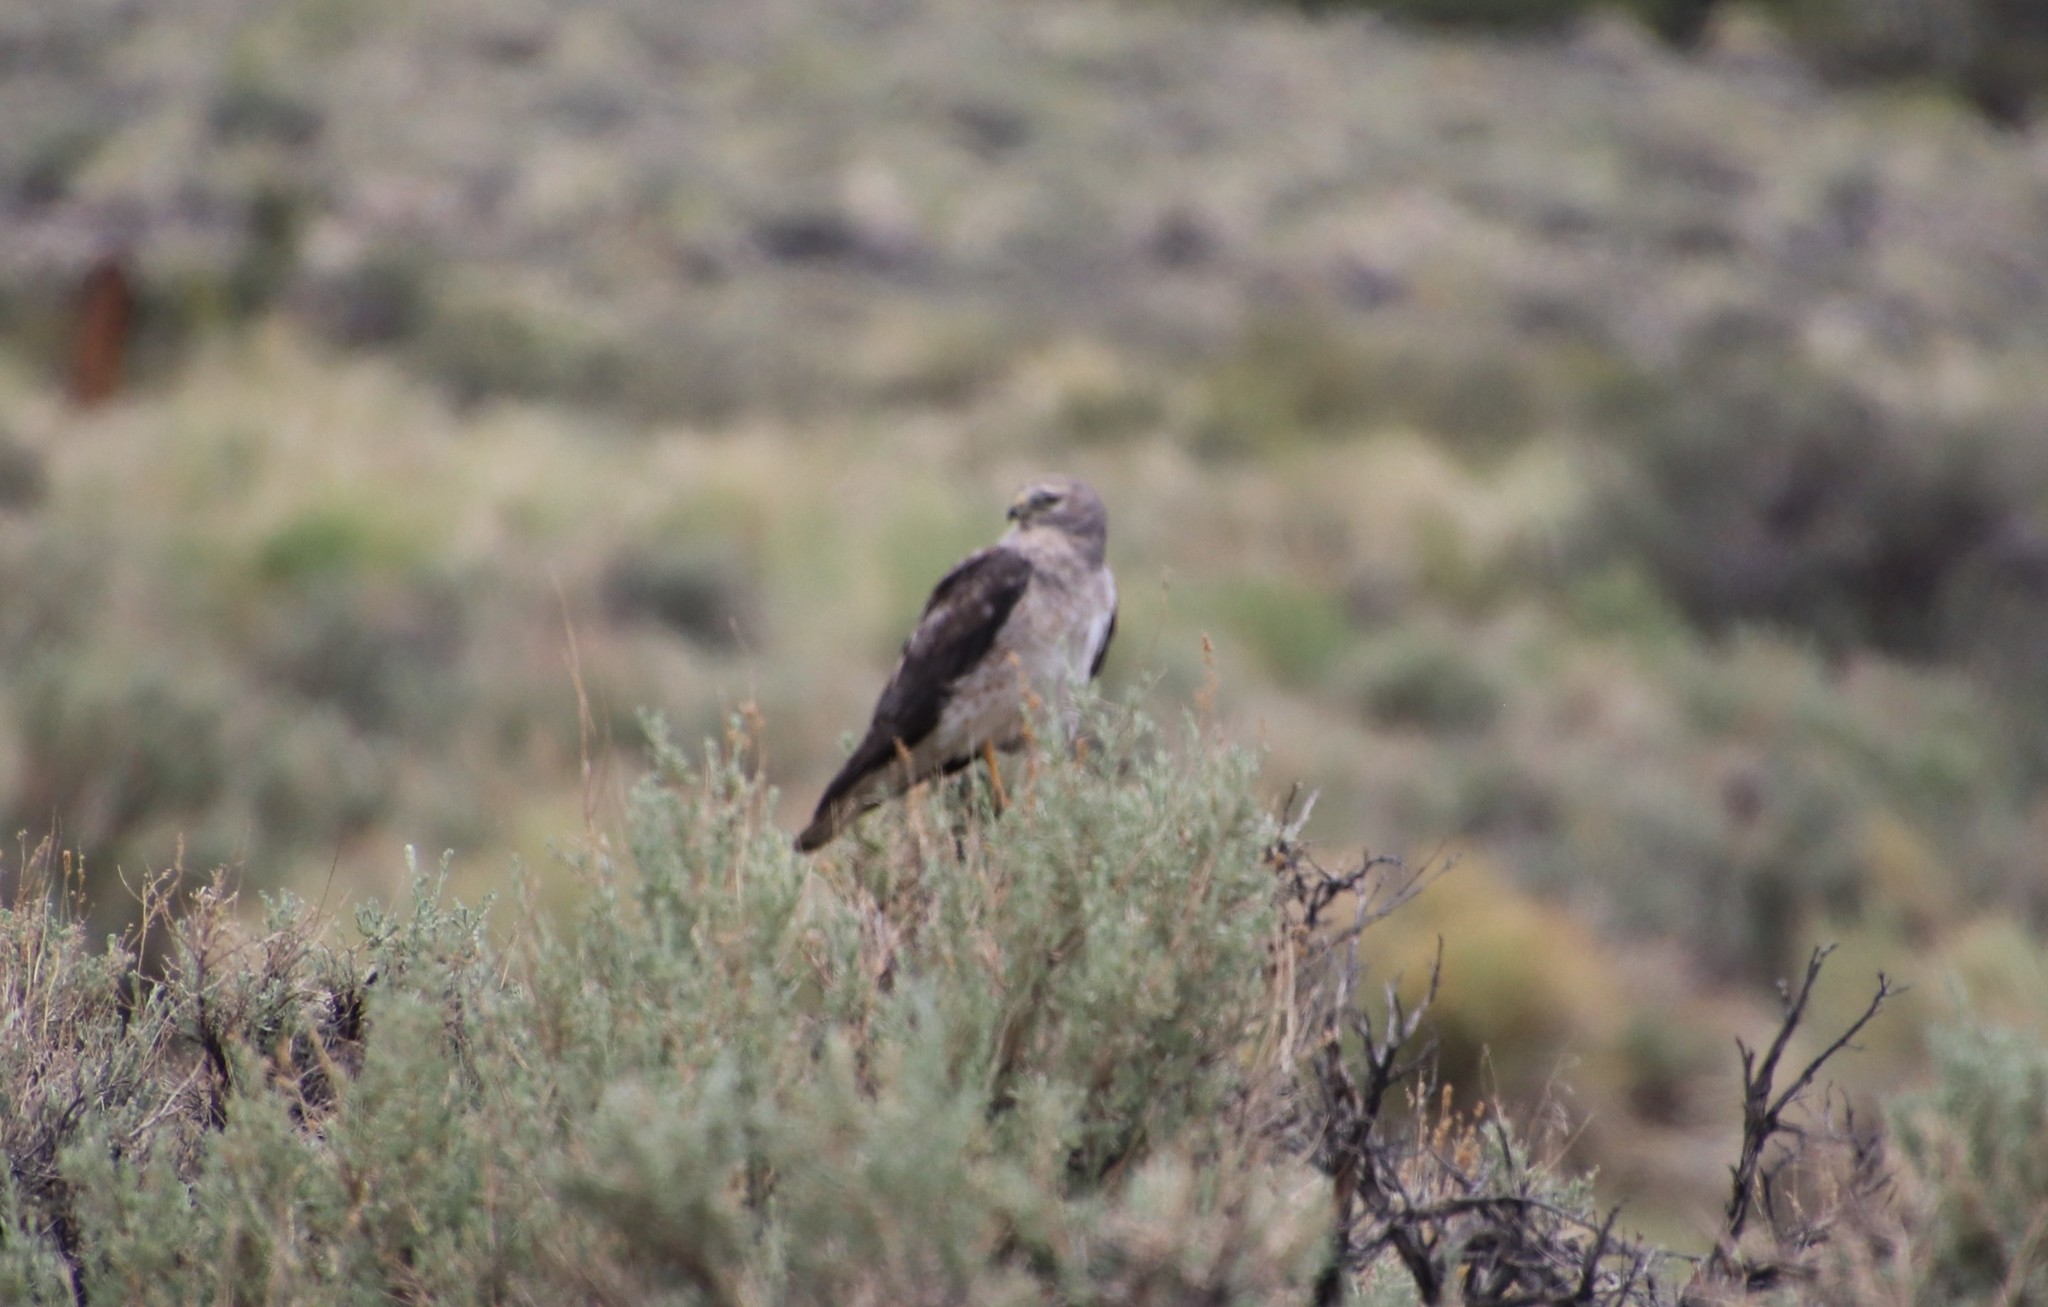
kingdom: Animalia
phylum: Chordata
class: Aves
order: Accipitriformes
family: Accipitridae
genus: Circus
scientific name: Circus cyaneus
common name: Hen harrier
